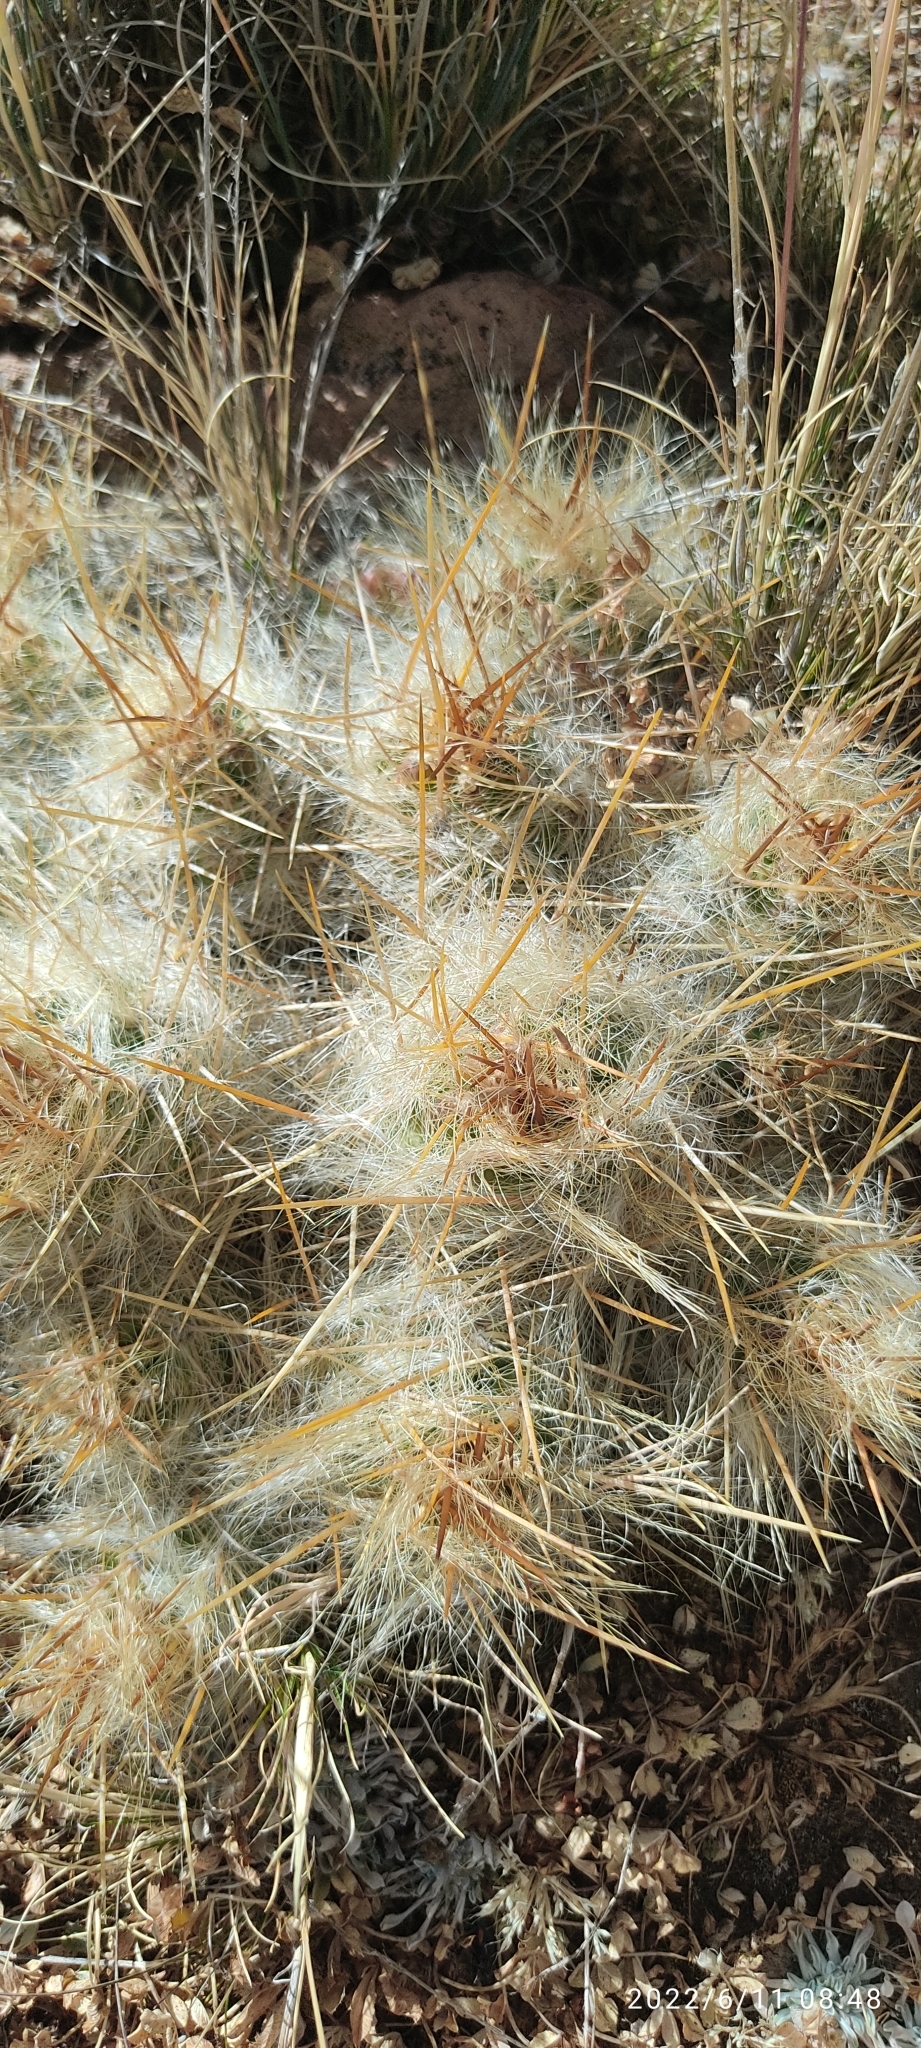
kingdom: Plantae
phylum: Tracheophyta
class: Magnoliopsida
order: Caryophyllales
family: Cactaceae
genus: Austrocylindropuntia
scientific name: Austrocylindropuntia floccosa
